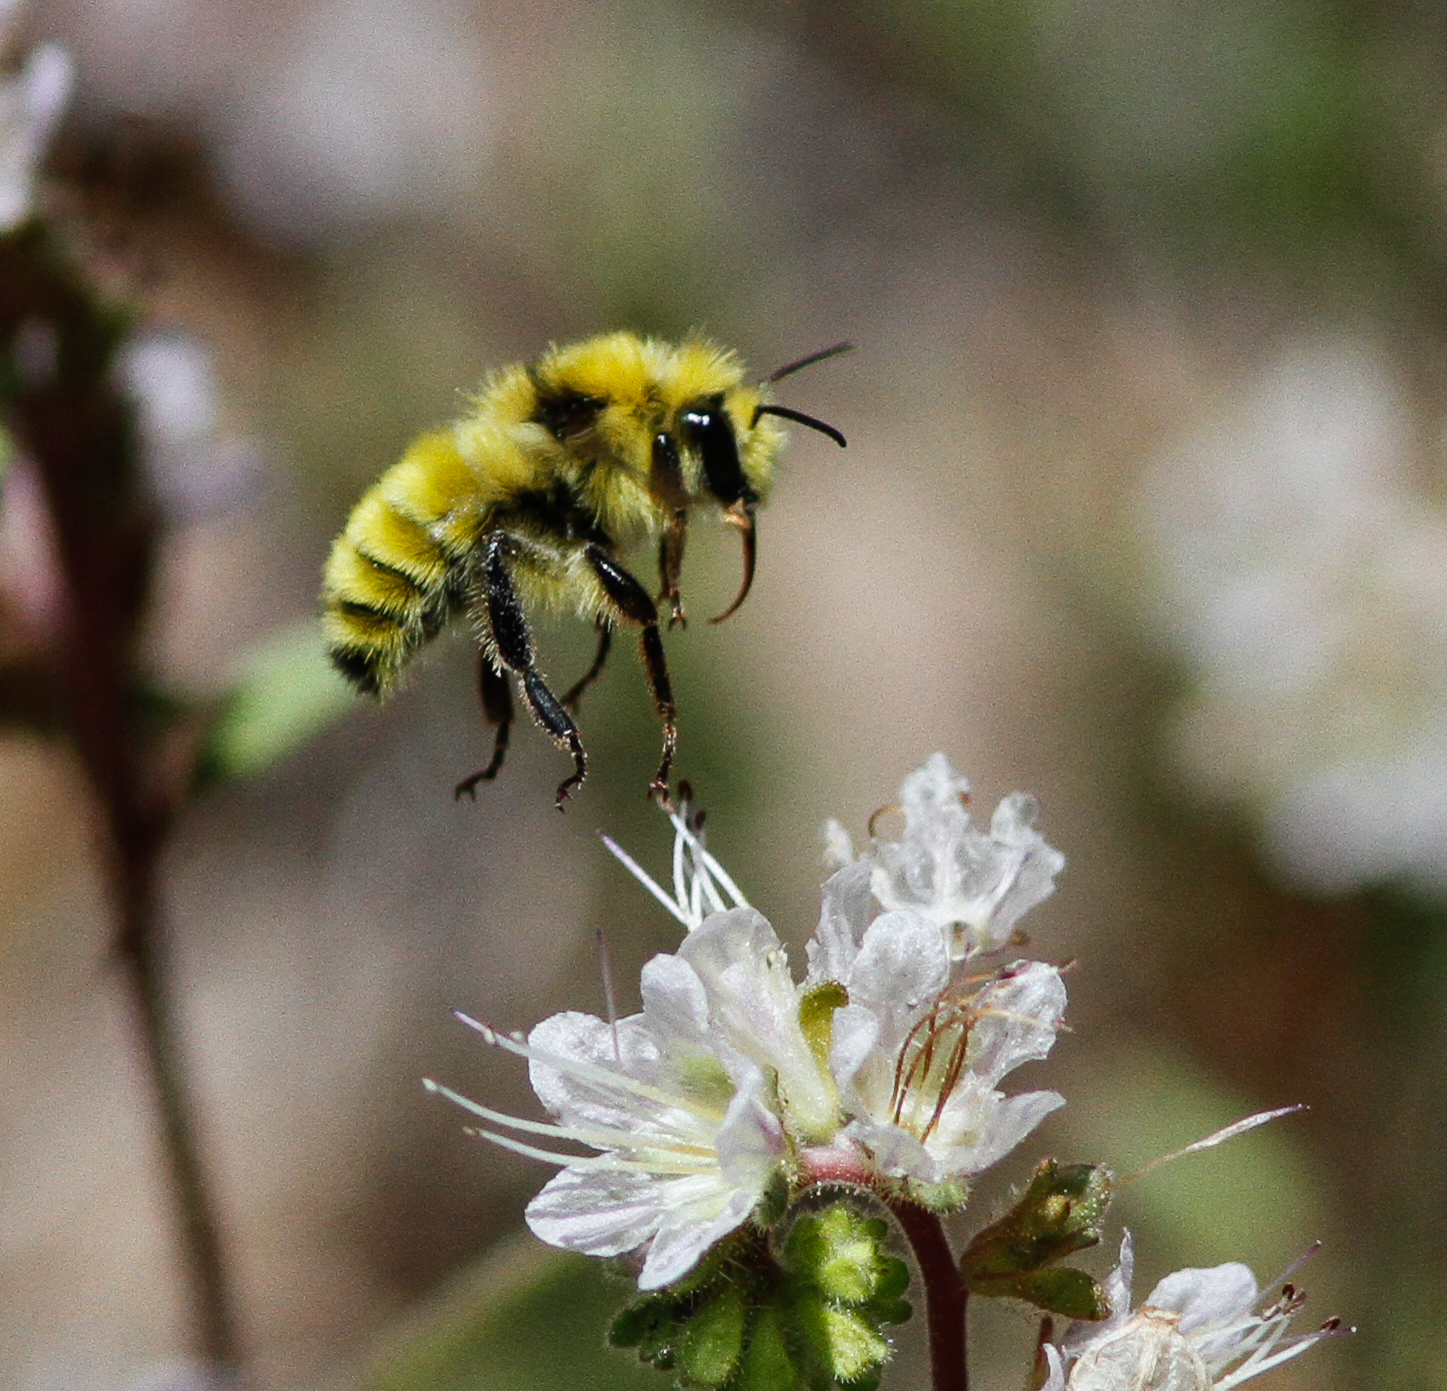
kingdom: Animalia
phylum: Arthropoda
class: Insecta
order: Hymenoptera
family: Apidae
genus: Bombus
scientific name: Bombus vandykei
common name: Van dyke bumble bee
